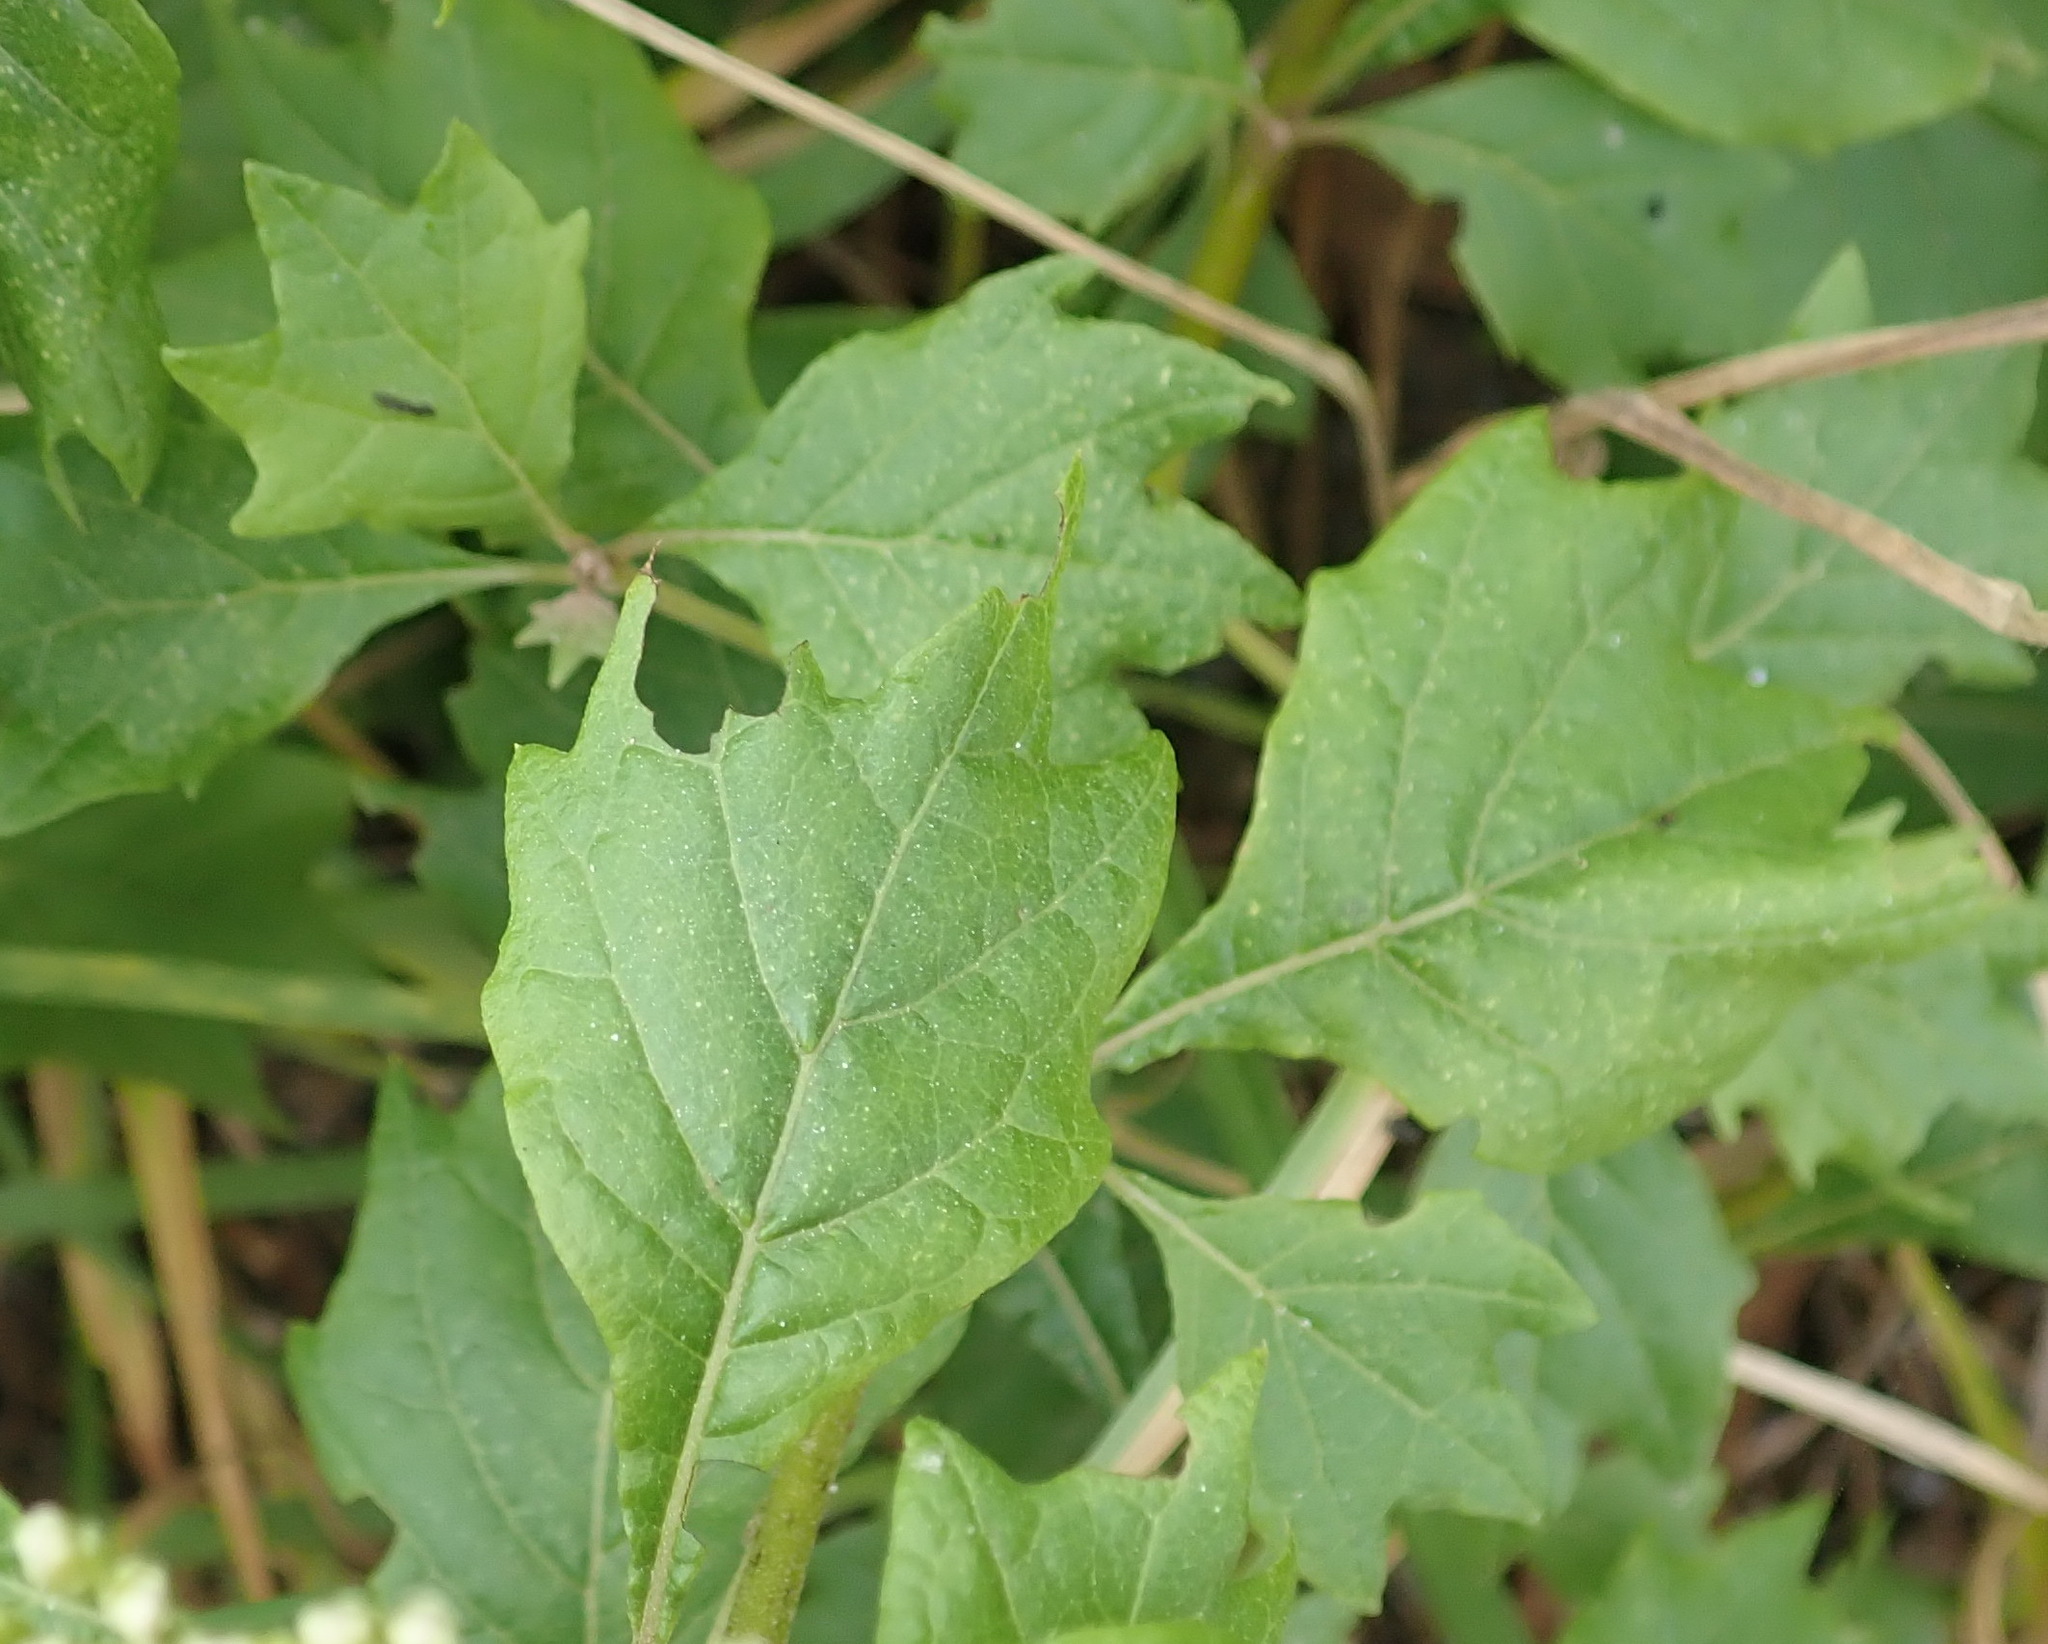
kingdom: Plantae
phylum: Tracheophyta
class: Magnoliopsida
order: Asterales
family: Asteraceae
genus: Gymnanthemum
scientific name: Gymnanthemum capense
